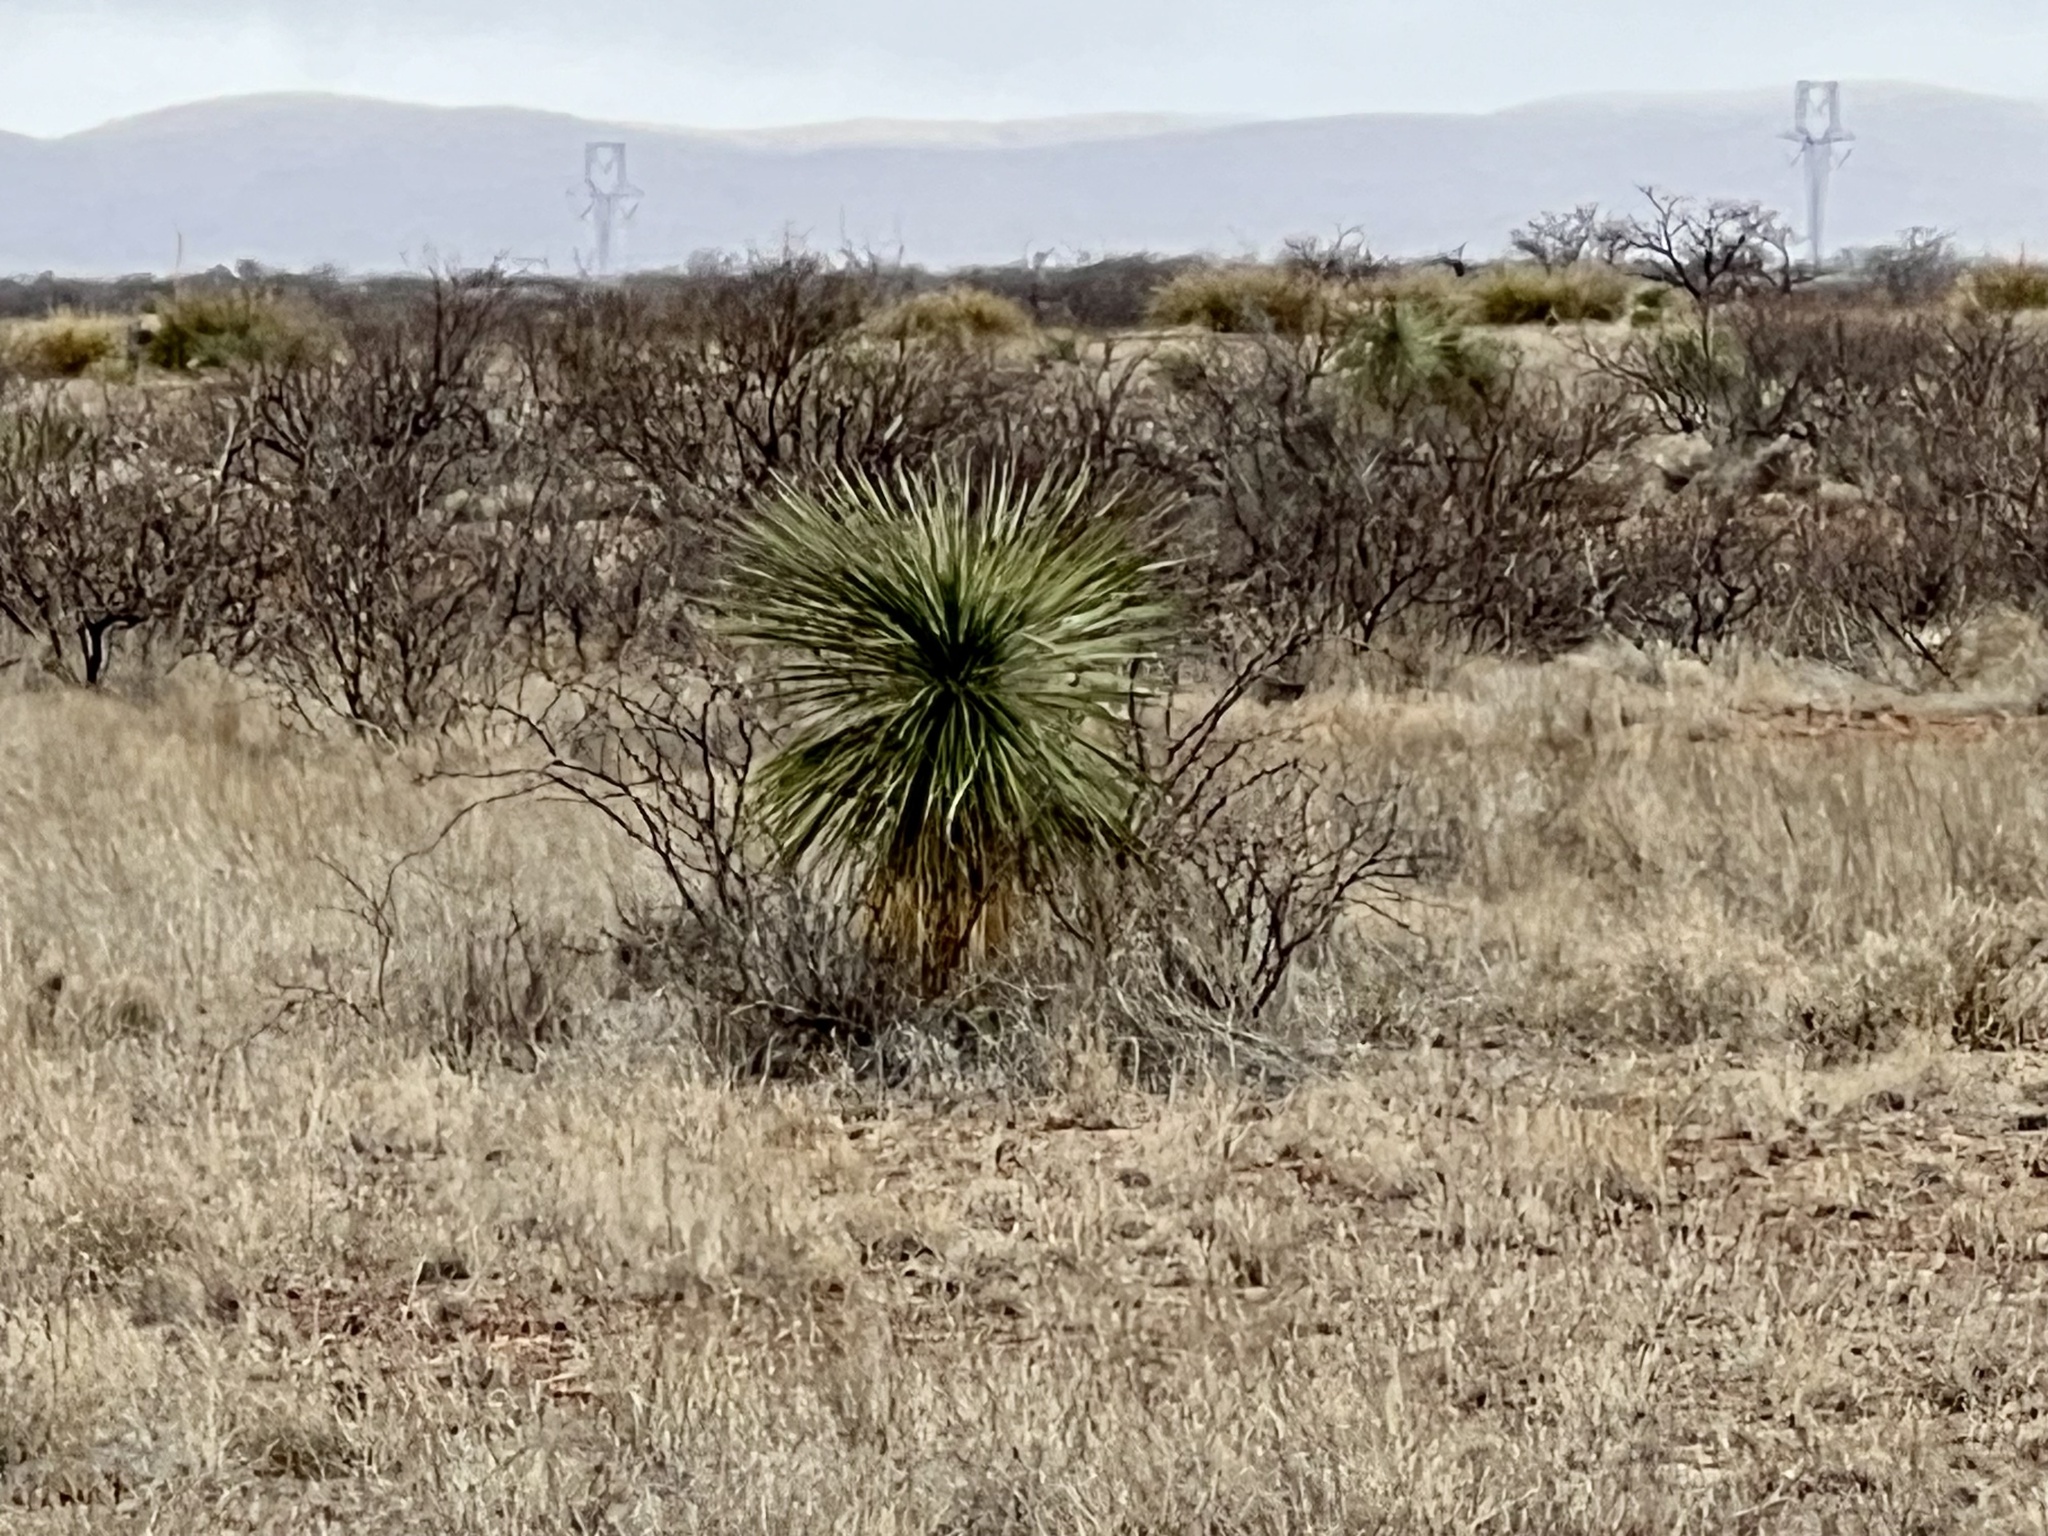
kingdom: Plantae
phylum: Tracheophyta
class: Liliopsida
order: Asparagales
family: Asparagaceae
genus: Yucca
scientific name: Yucca elata
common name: Palmella
